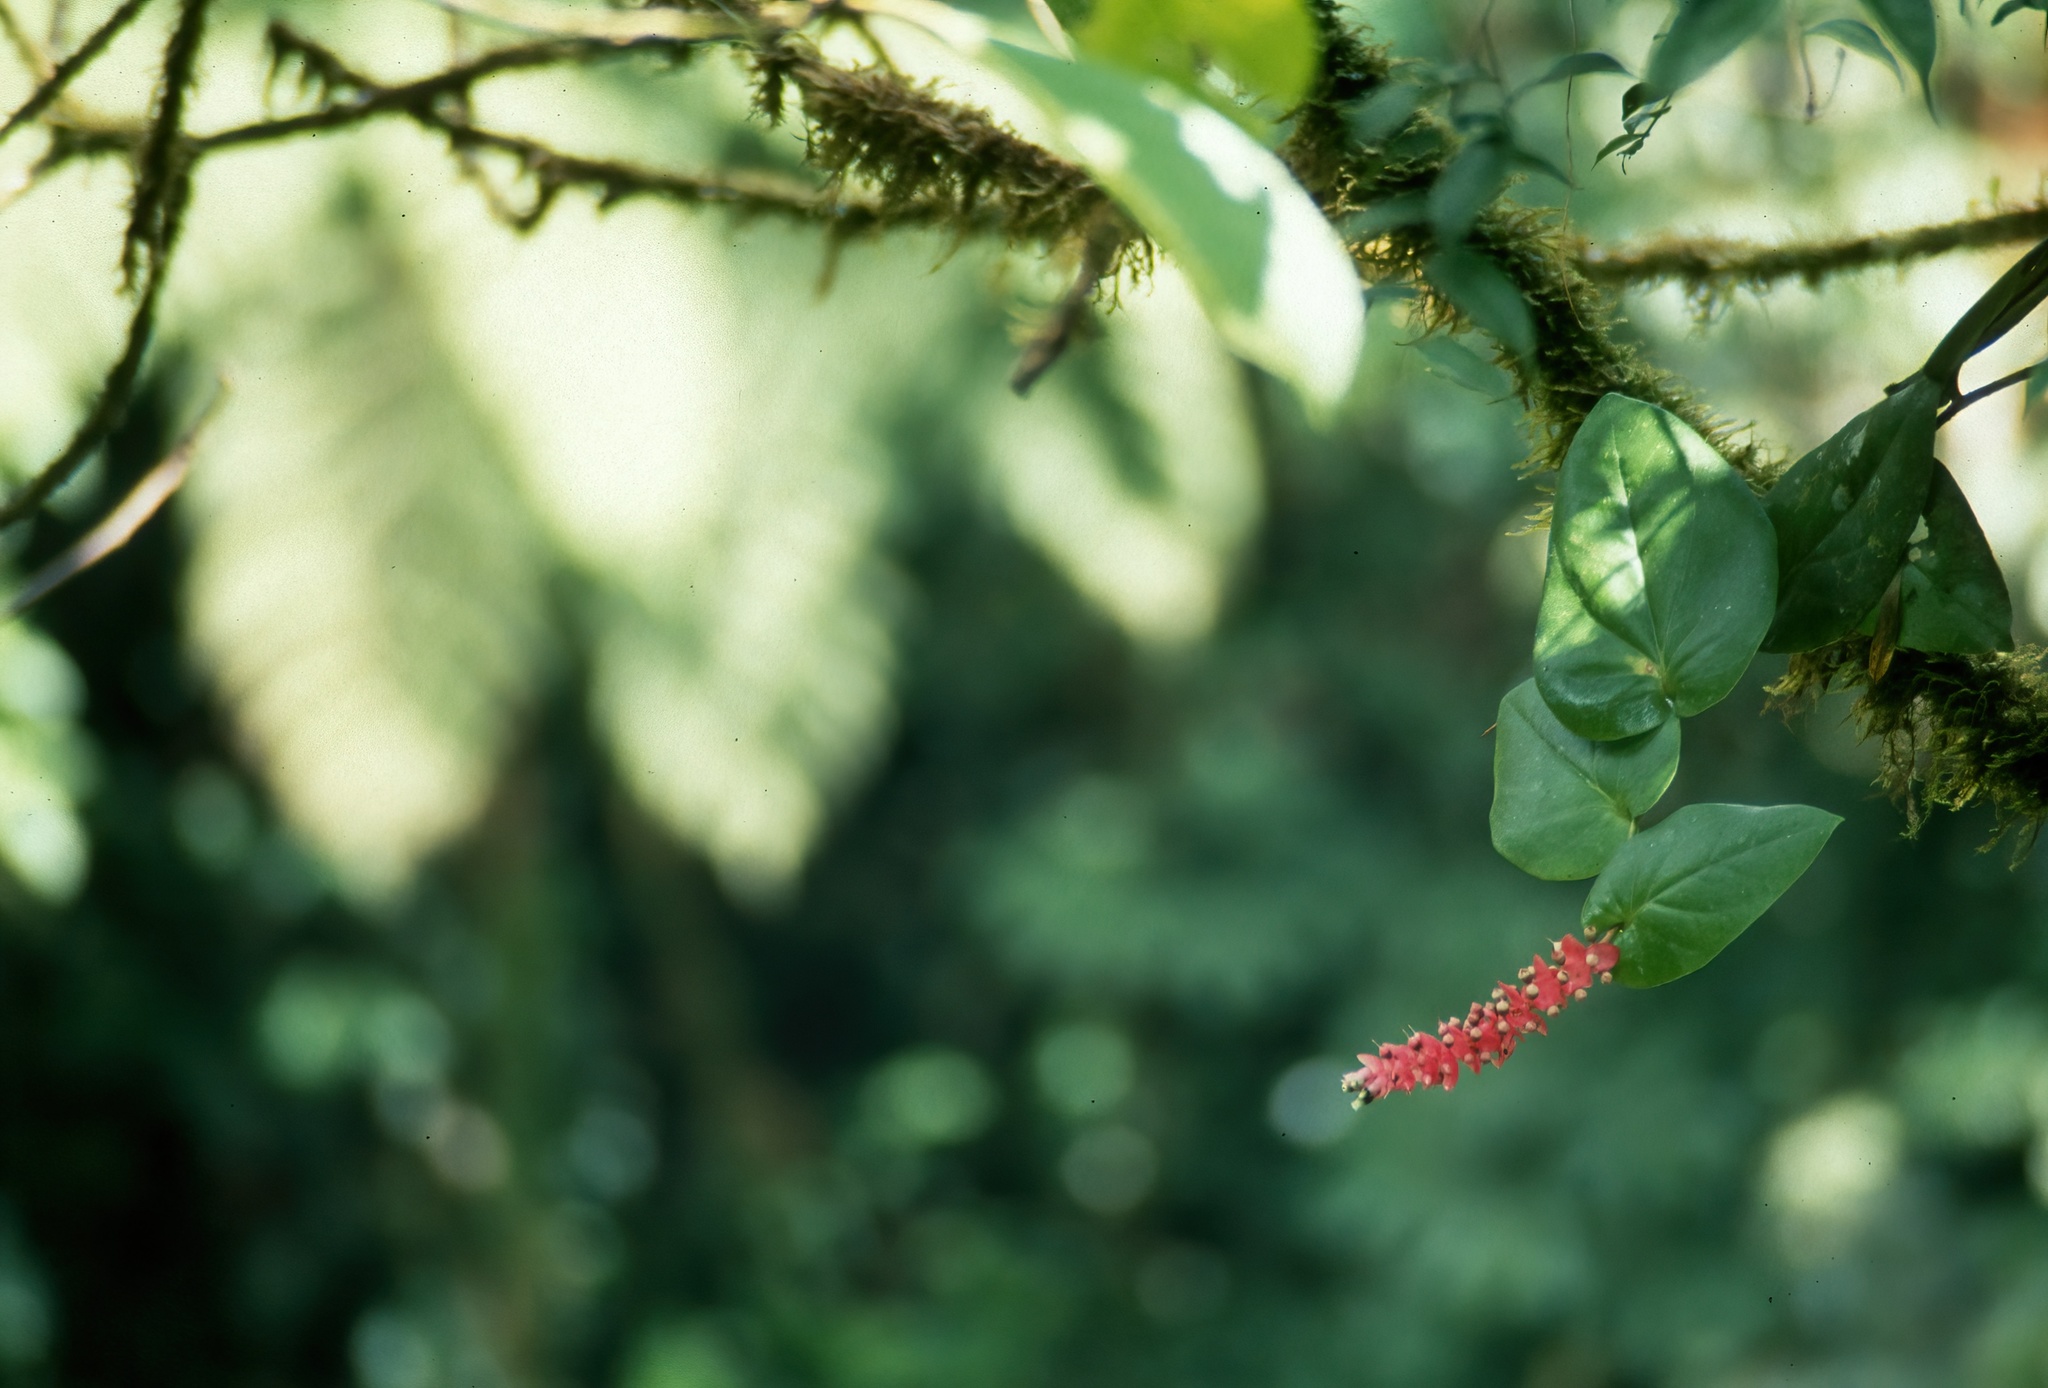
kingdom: Plantae
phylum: Tracheophyta
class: Magnoliopsida
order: Ericales
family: Ericaceae
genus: Cavendishia
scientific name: Cavendishia complectens
